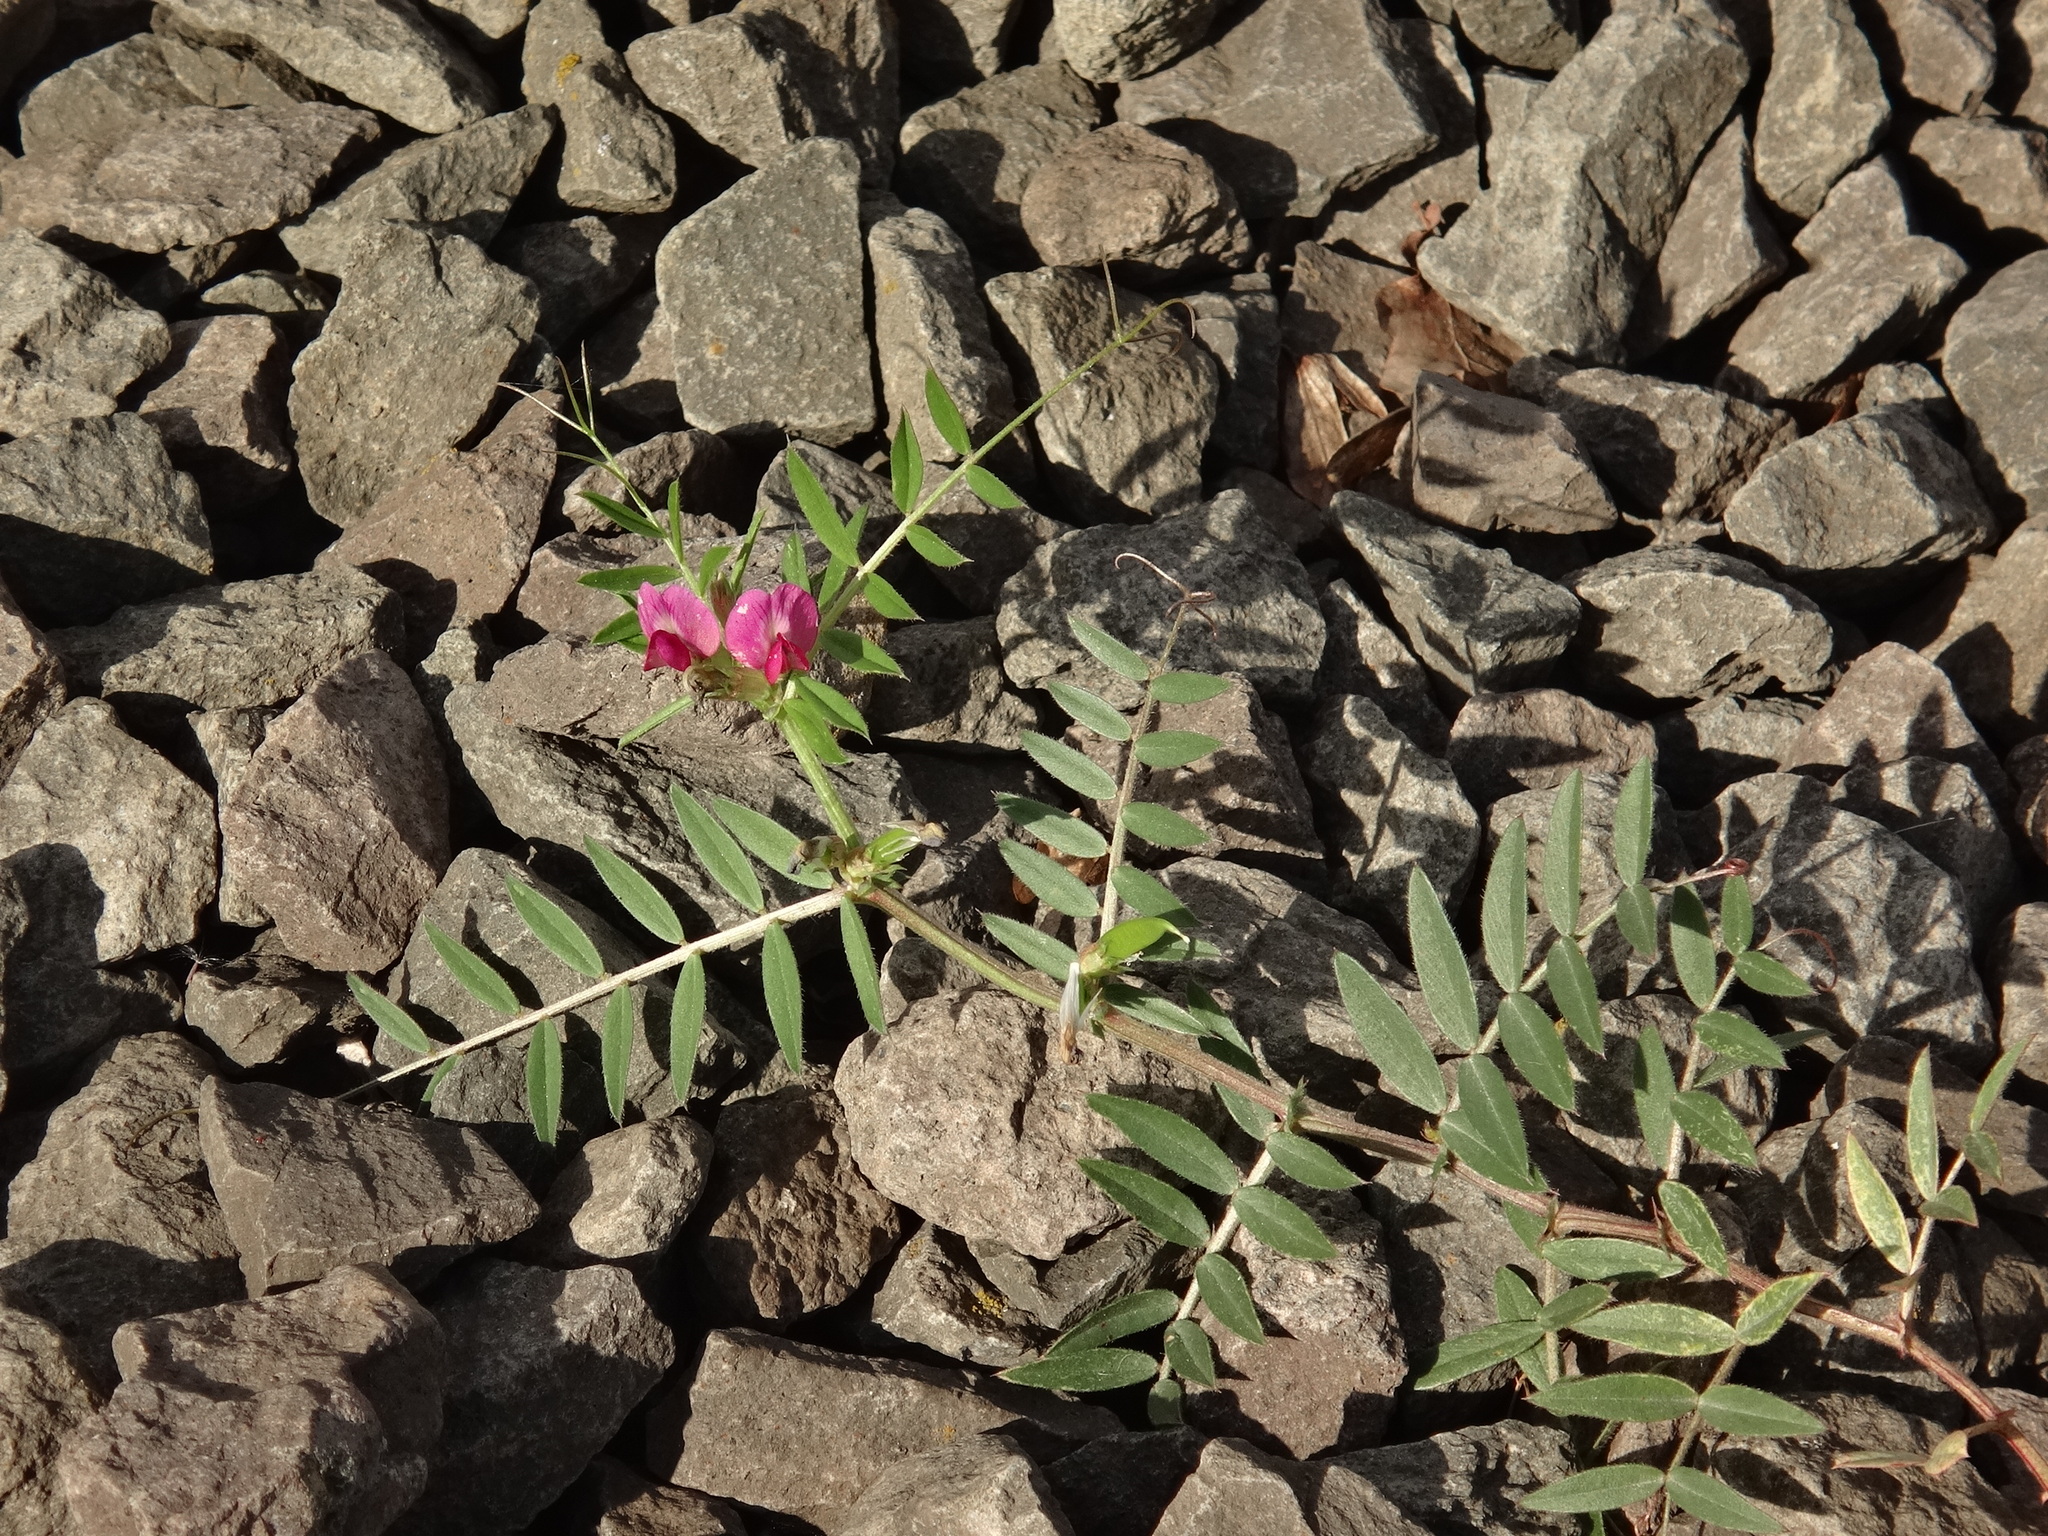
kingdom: Plantae
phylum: Tracheophyta
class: Magnoliopsida
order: Fabales
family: Fabaceae
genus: Vicia
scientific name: Vicia sativa
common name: Garden vetch
